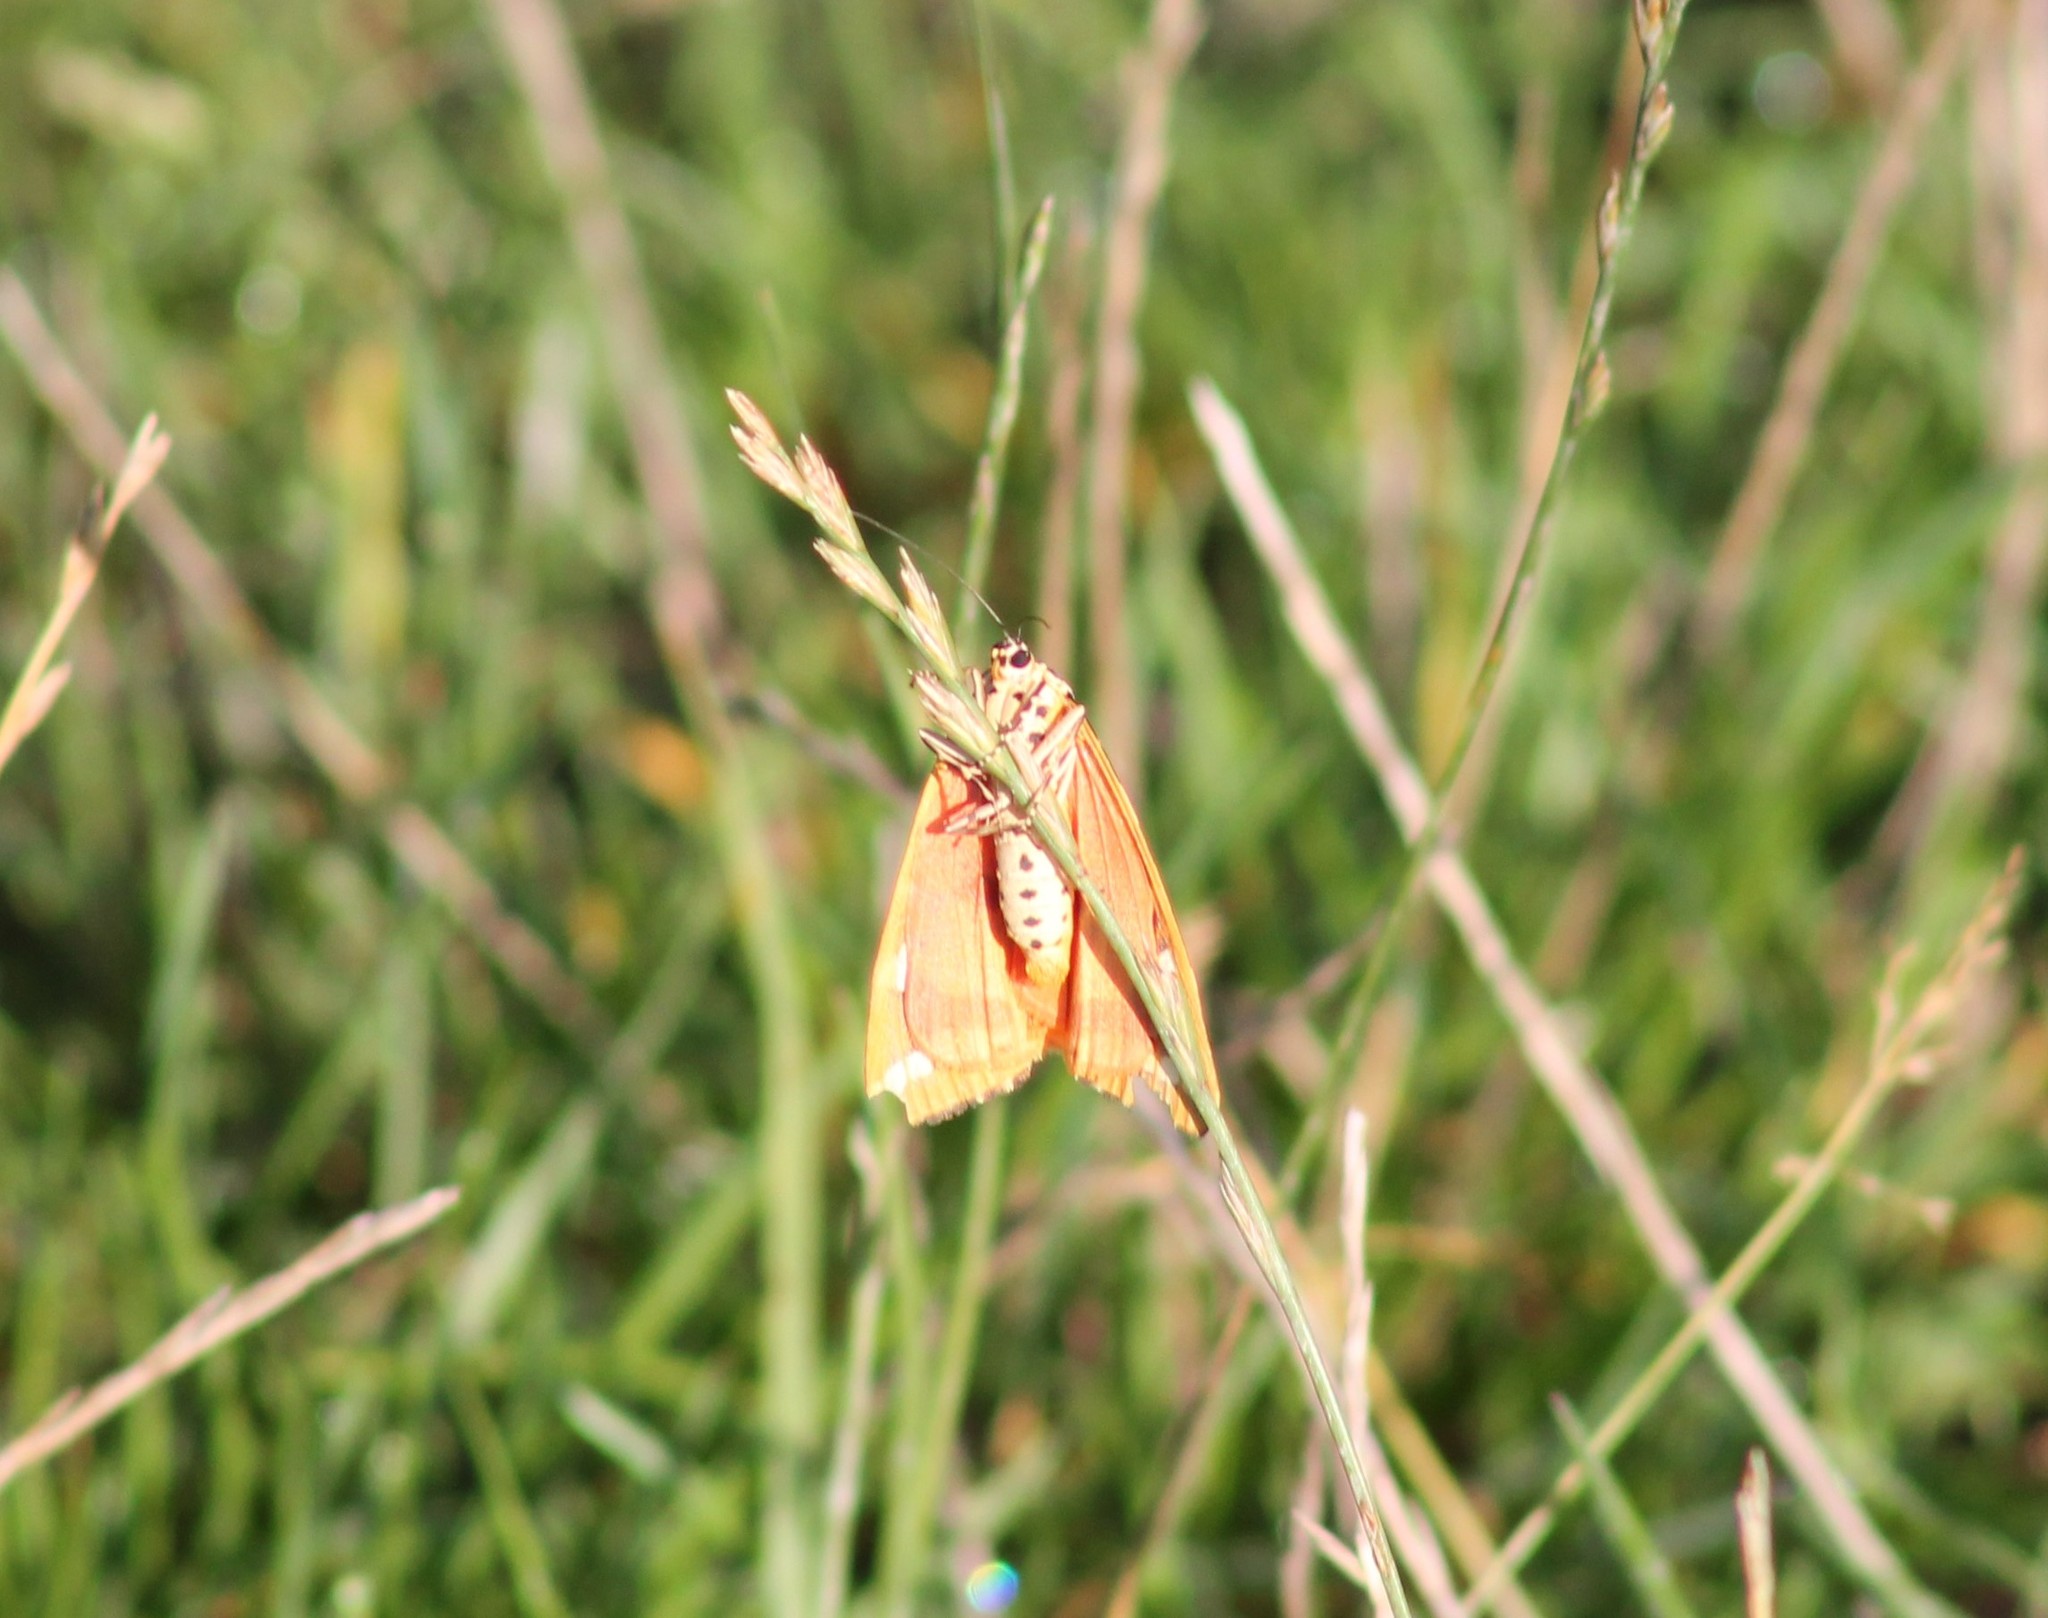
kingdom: Animalia
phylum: Arthropoda
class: Insecta
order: Lepidoptera
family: Erebidae
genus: Euplagia
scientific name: Euplagia quadripunctaria
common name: Jersey tiger
